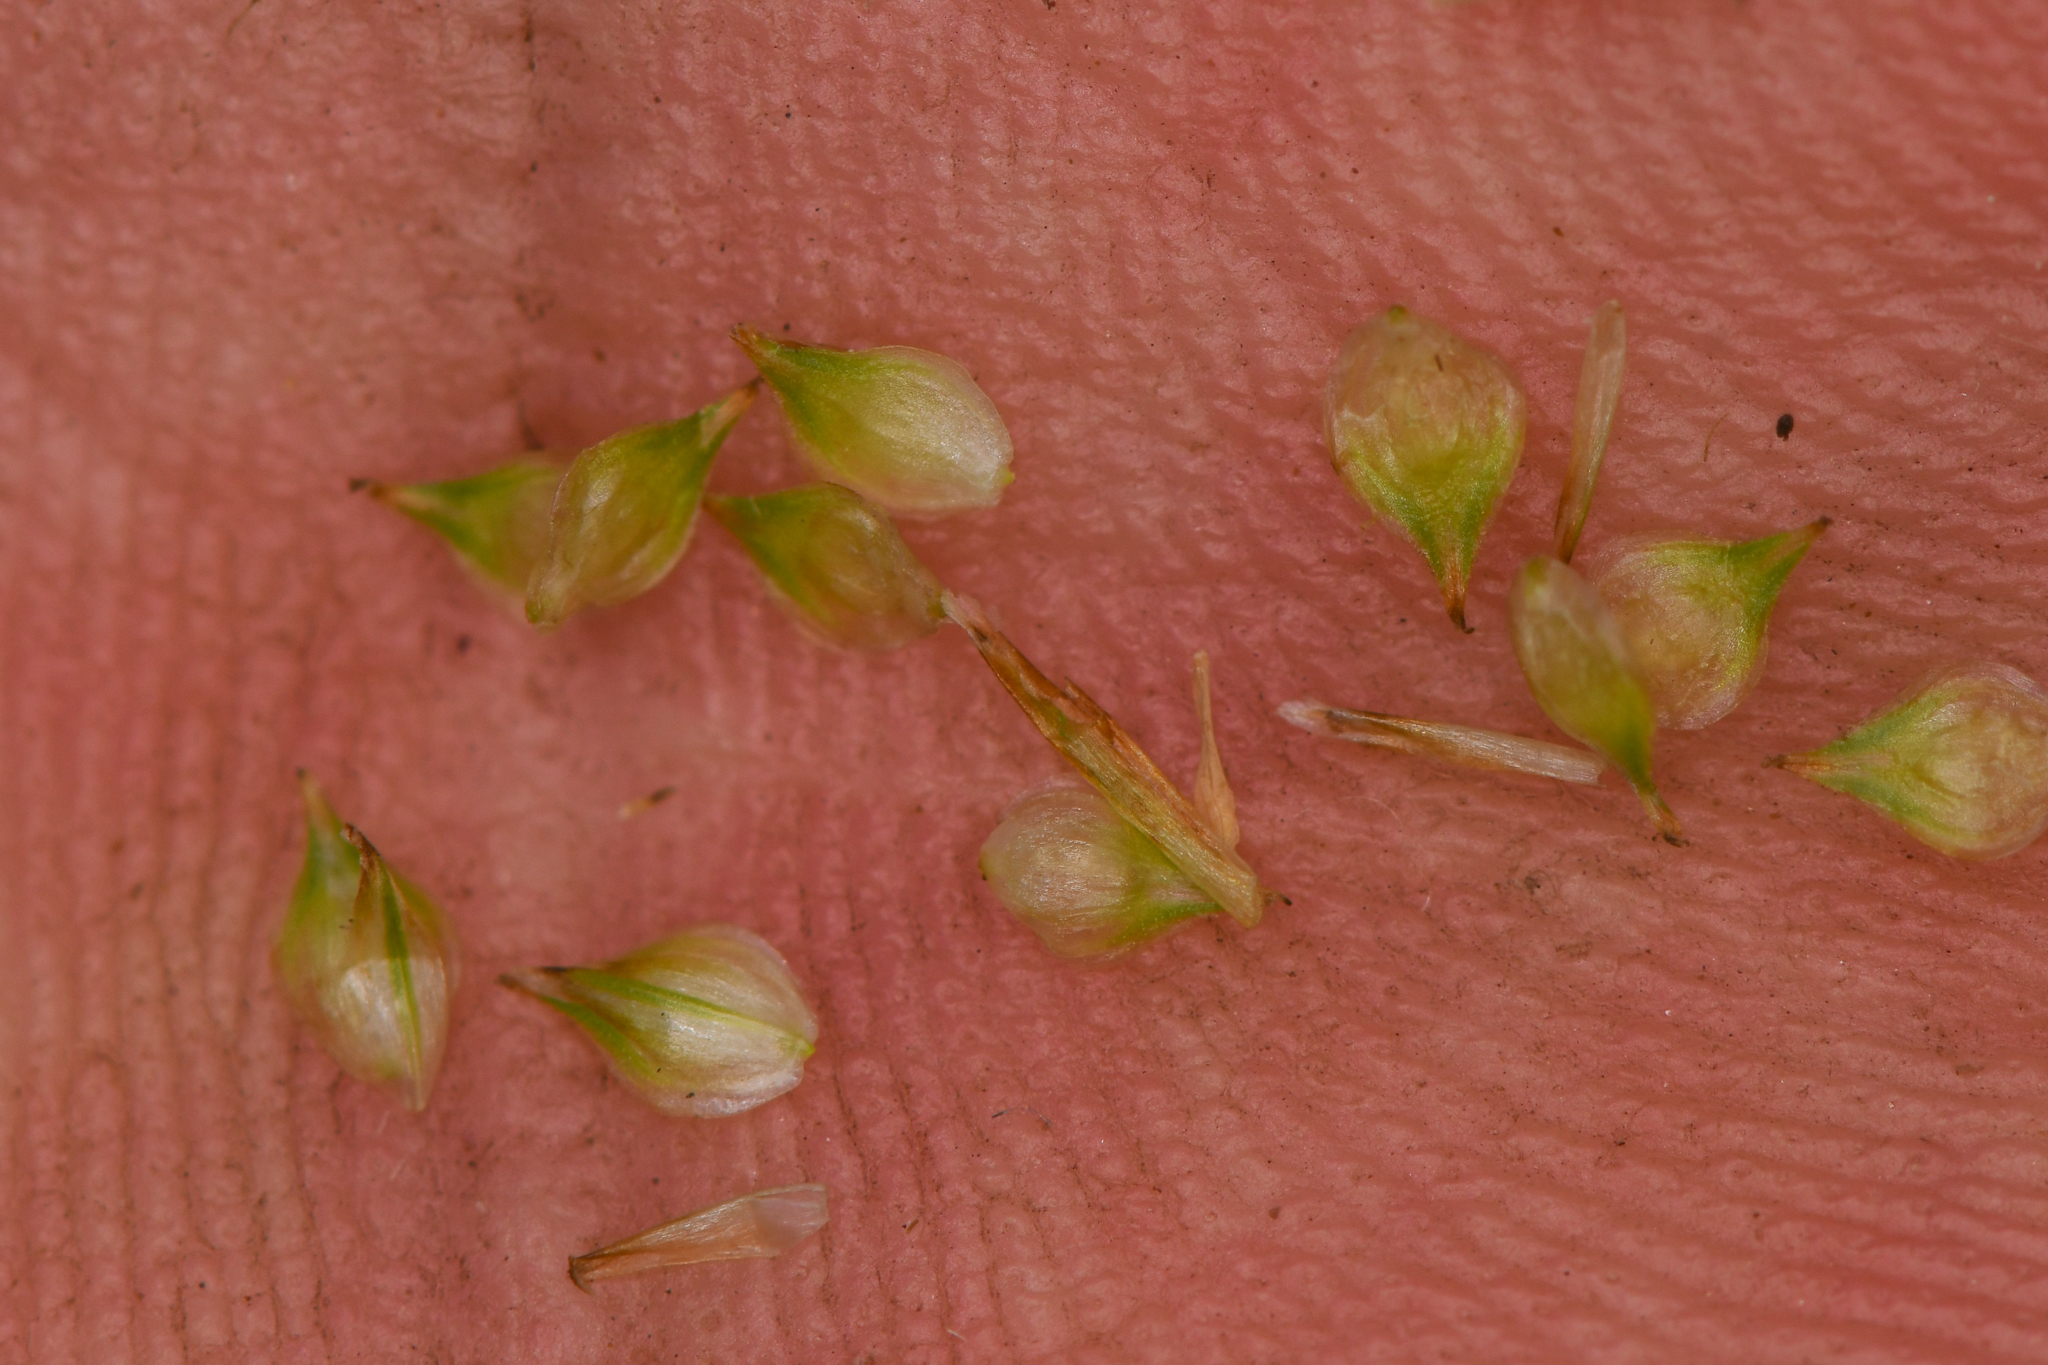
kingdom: Plantae
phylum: Tracheophyta
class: Liliopsida
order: Poales
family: Cyperaceae
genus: Carex
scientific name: Carex feta
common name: Green-sheathed sedge
